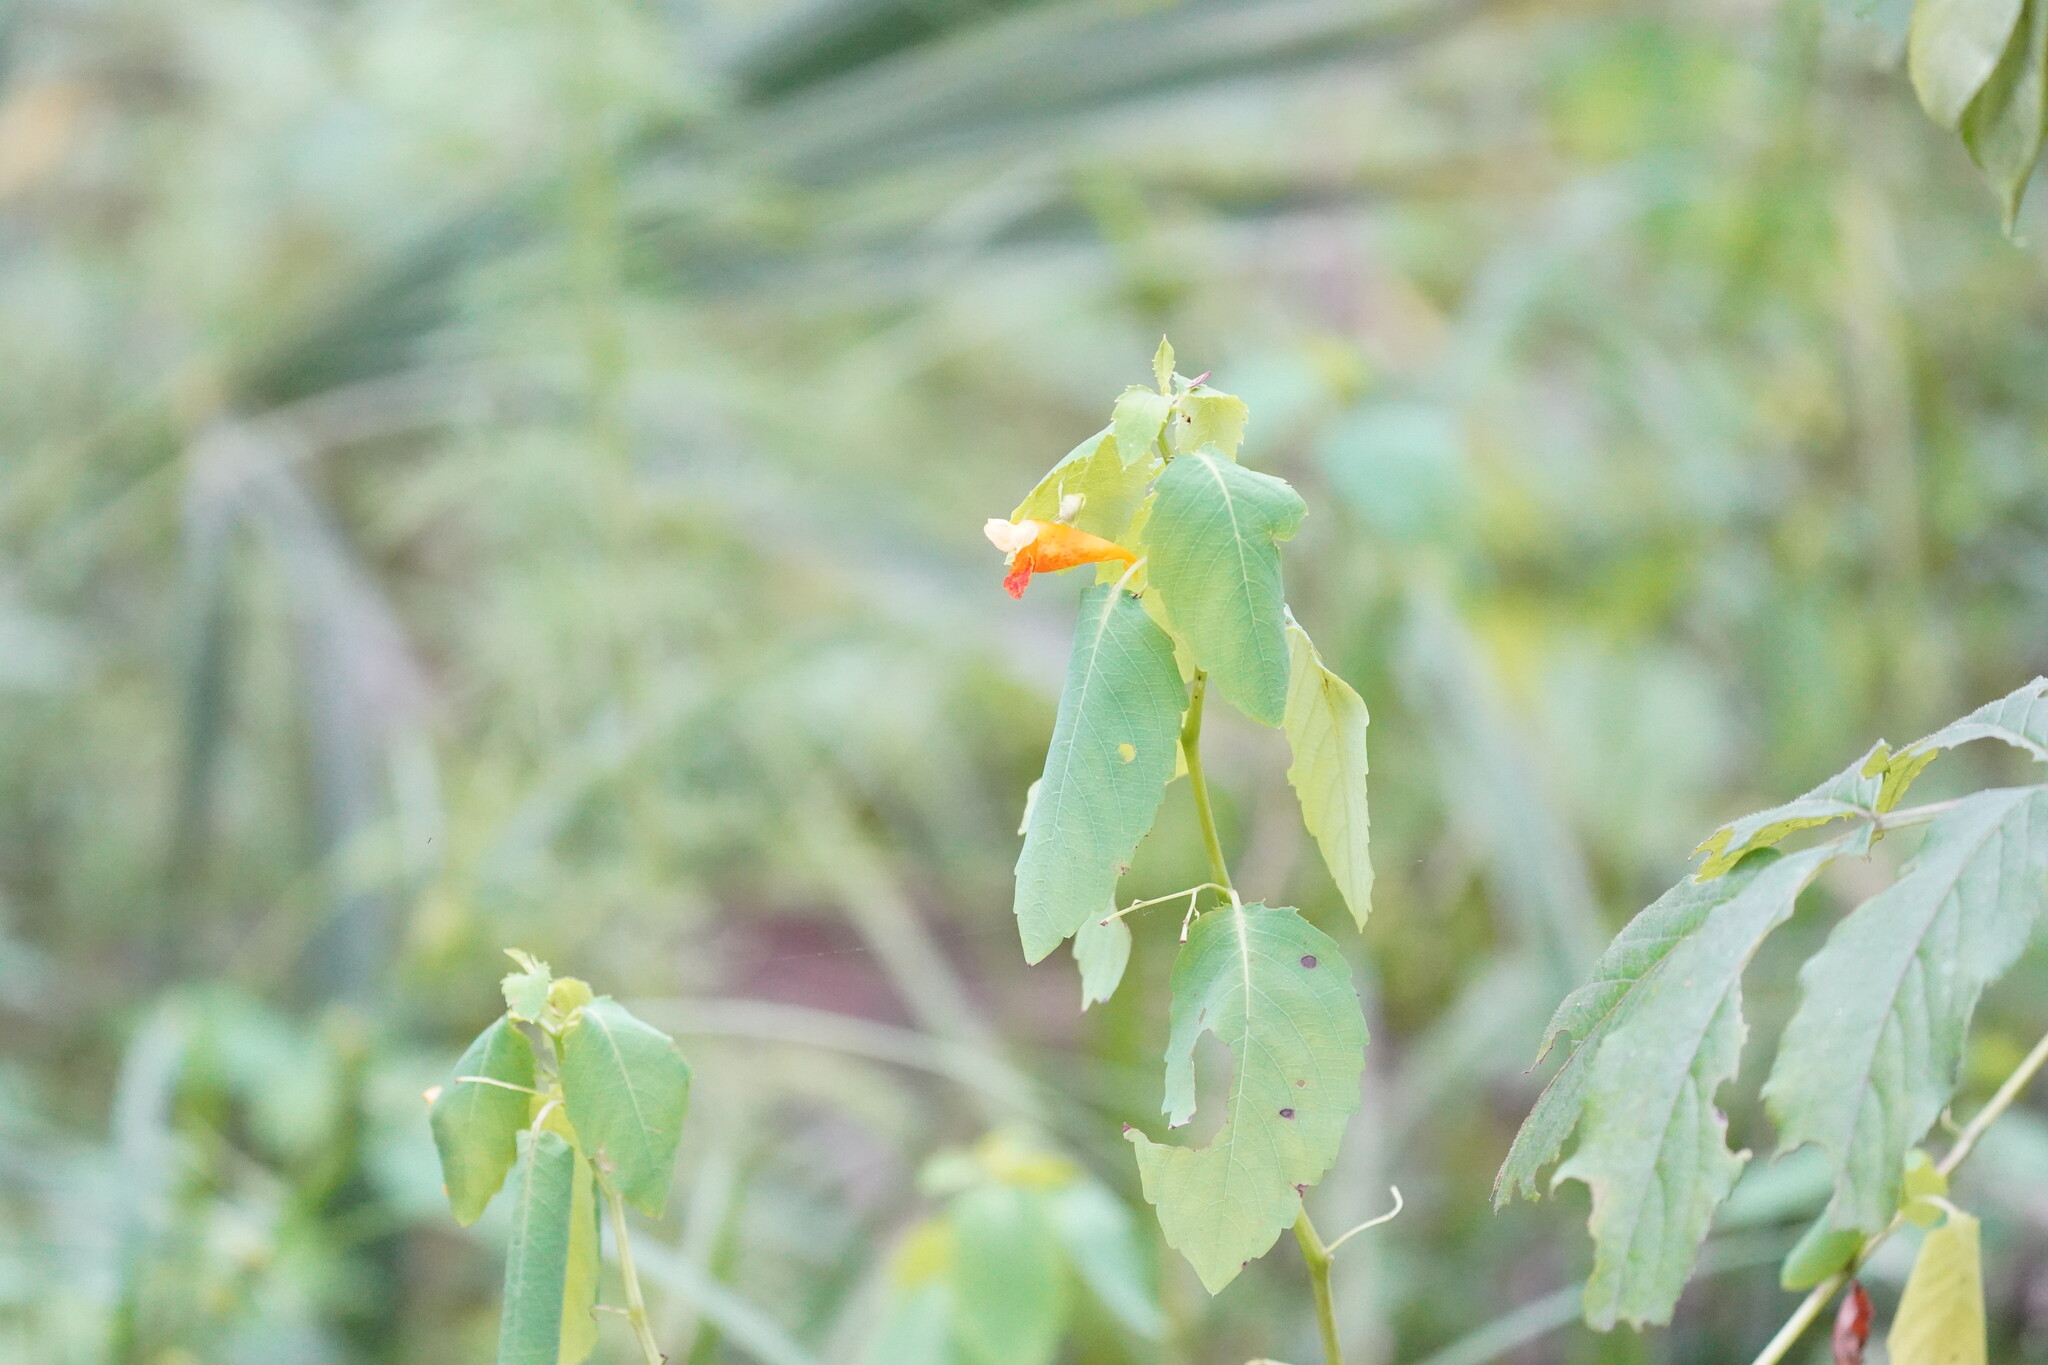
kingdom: Plantae
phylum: Tracheophyta
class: Magnoliopsida
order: Ericales
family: Balsaminaceae
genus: Impatiens
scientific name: Impatiens capensis
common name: Orange balsam
